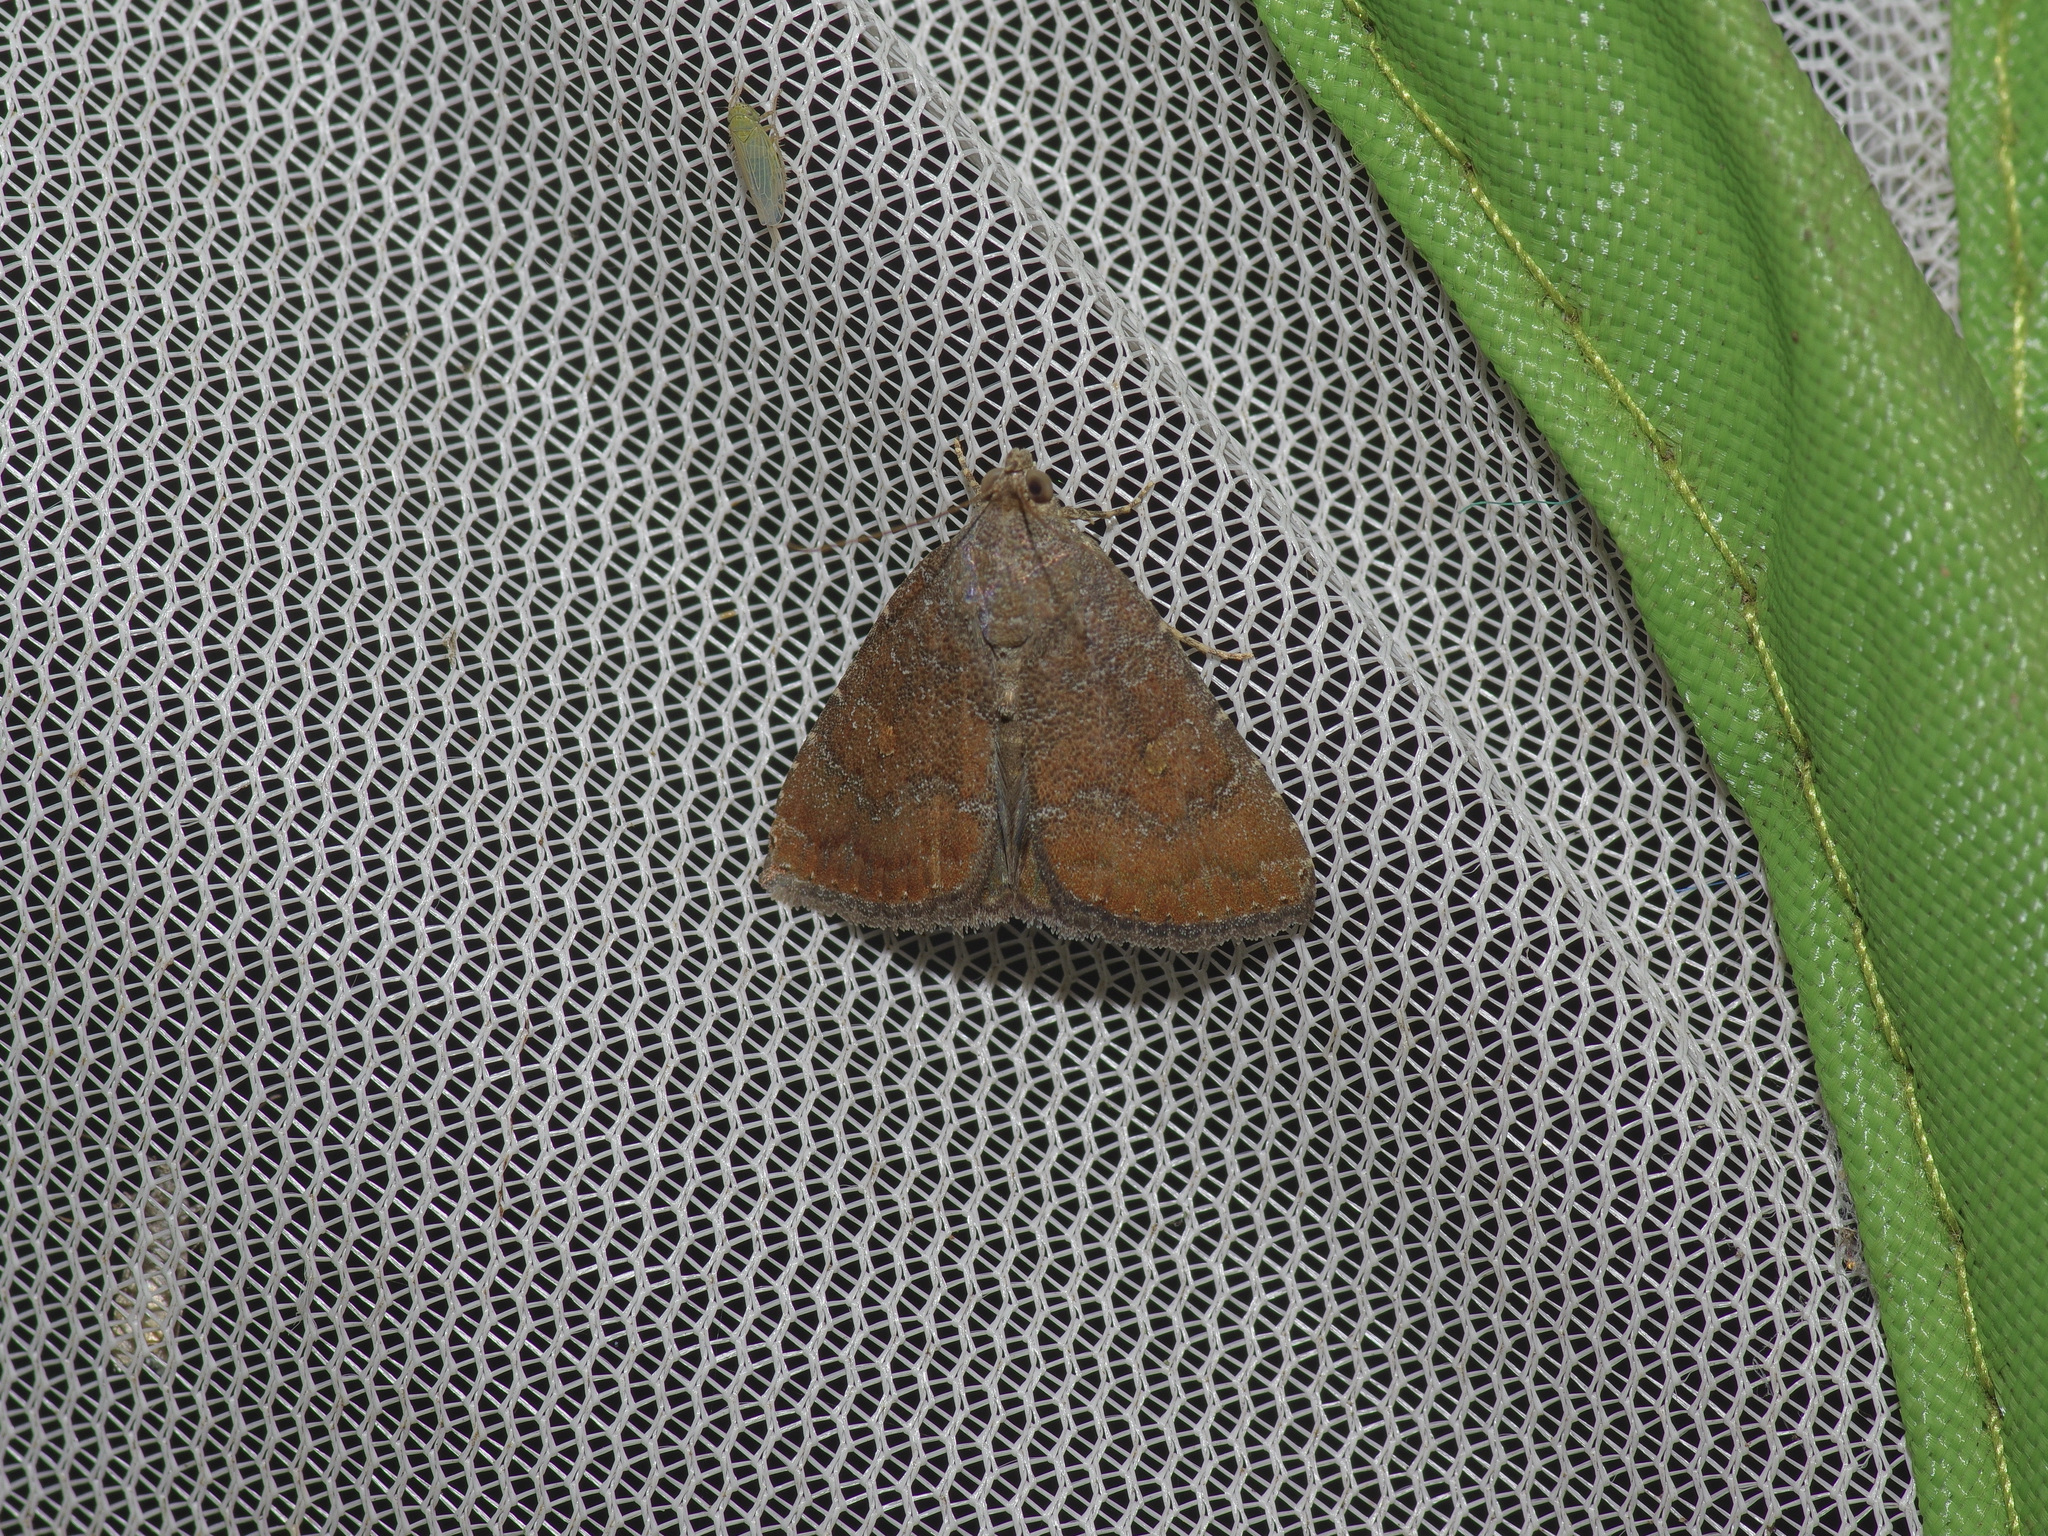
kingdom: Animalia
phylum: Arthropoda
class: Insecta
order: Lepidoptera
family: Noctuidae
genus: Amyna
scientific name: Amyna stricta
